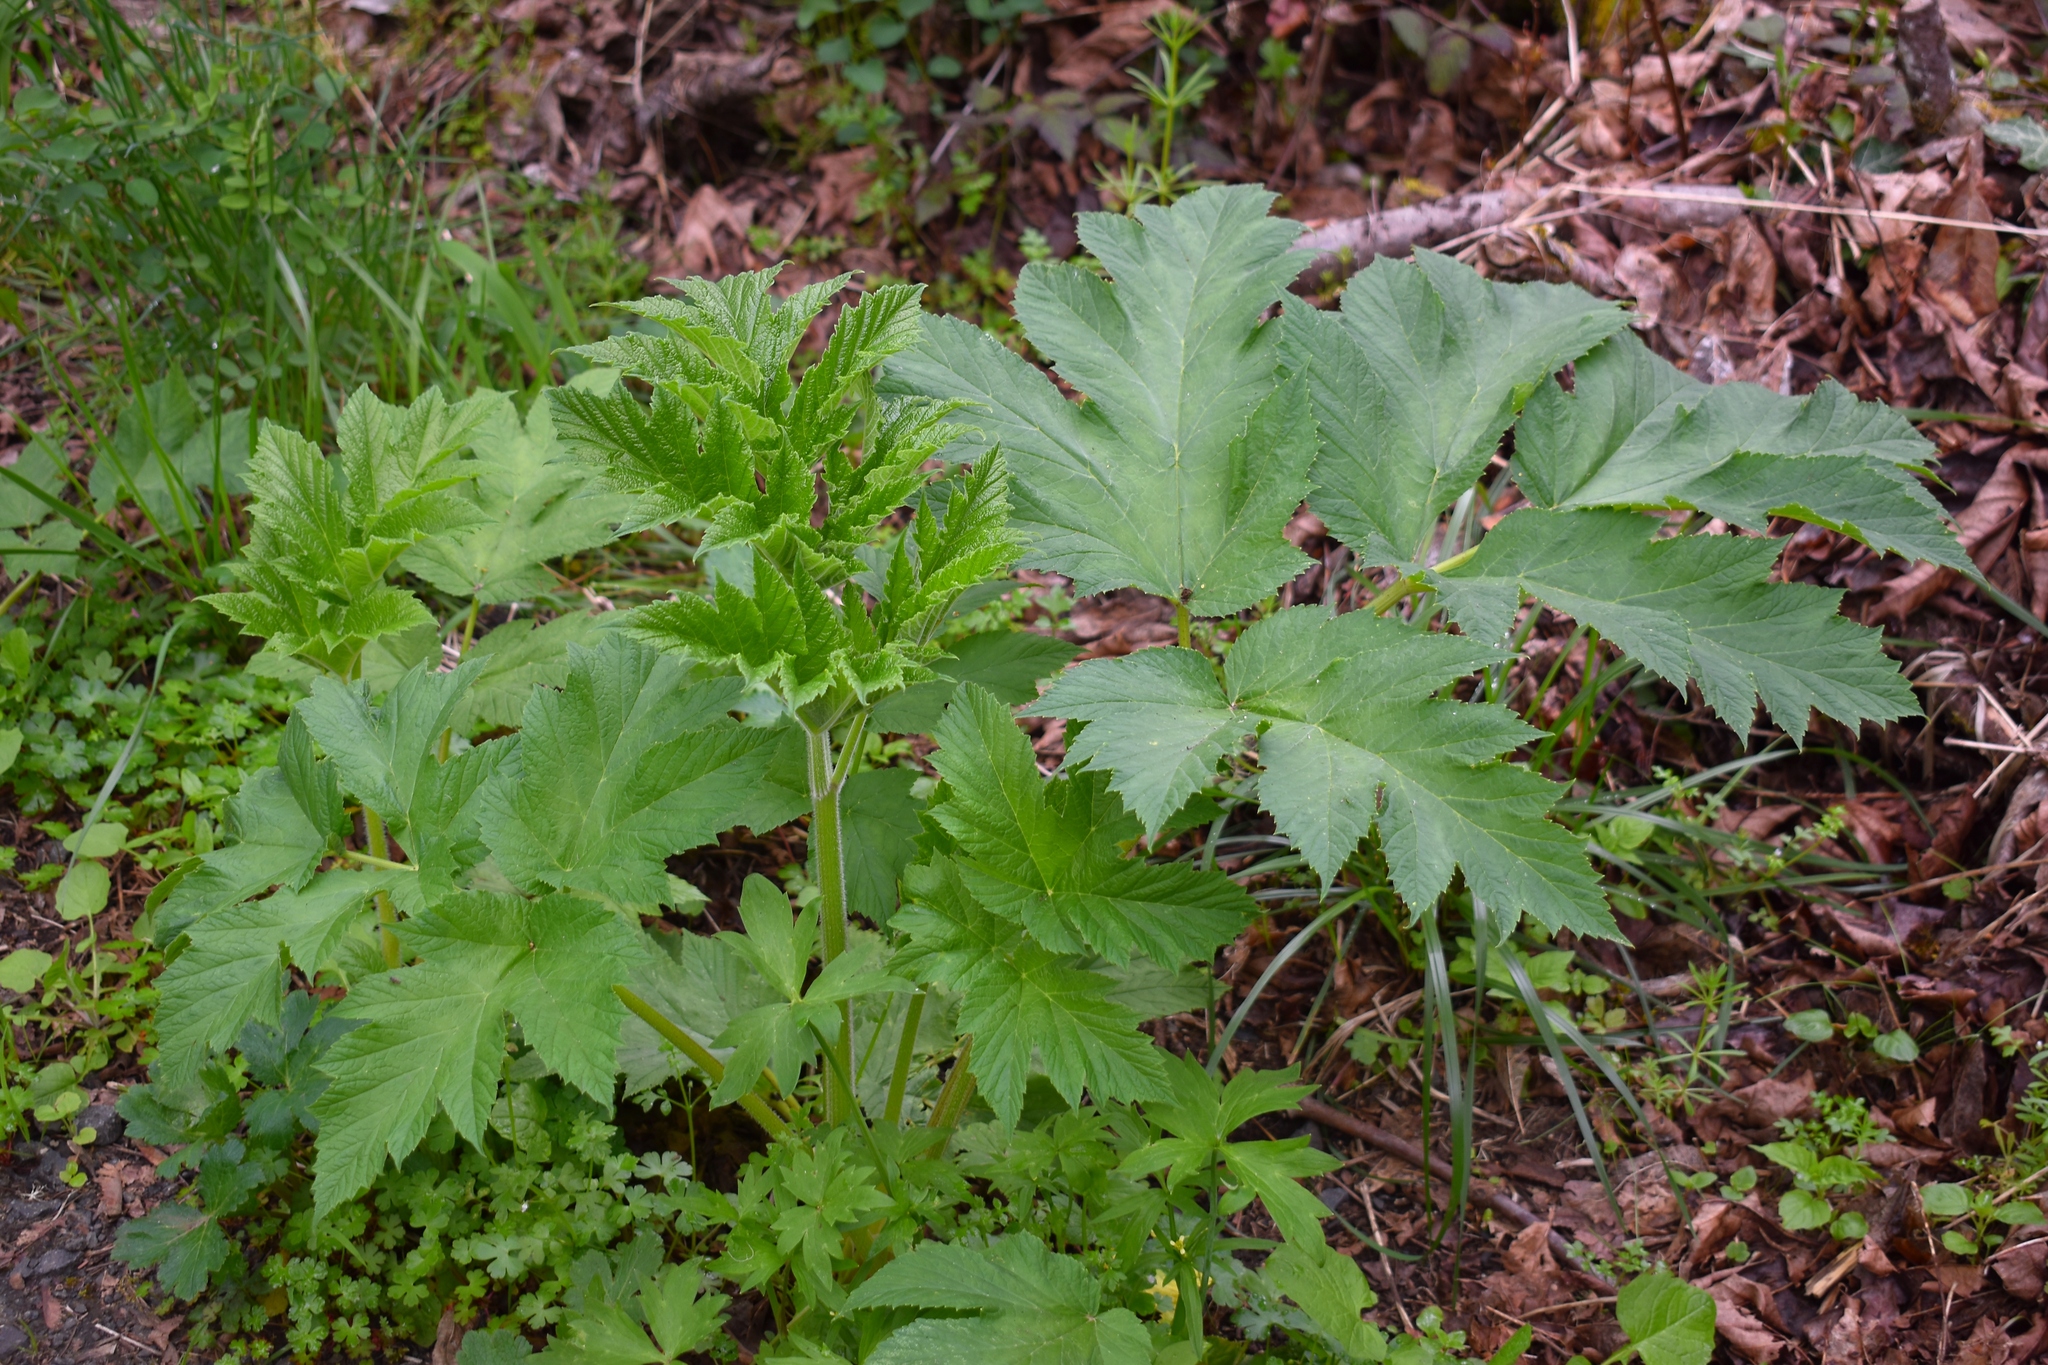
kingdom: Plantae
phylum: Tracheophyta
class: Magnoliopsida
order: Apiales
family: Apiaceae
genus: Heracleum
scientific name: Heracleum maximum
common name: American cow parsnip
